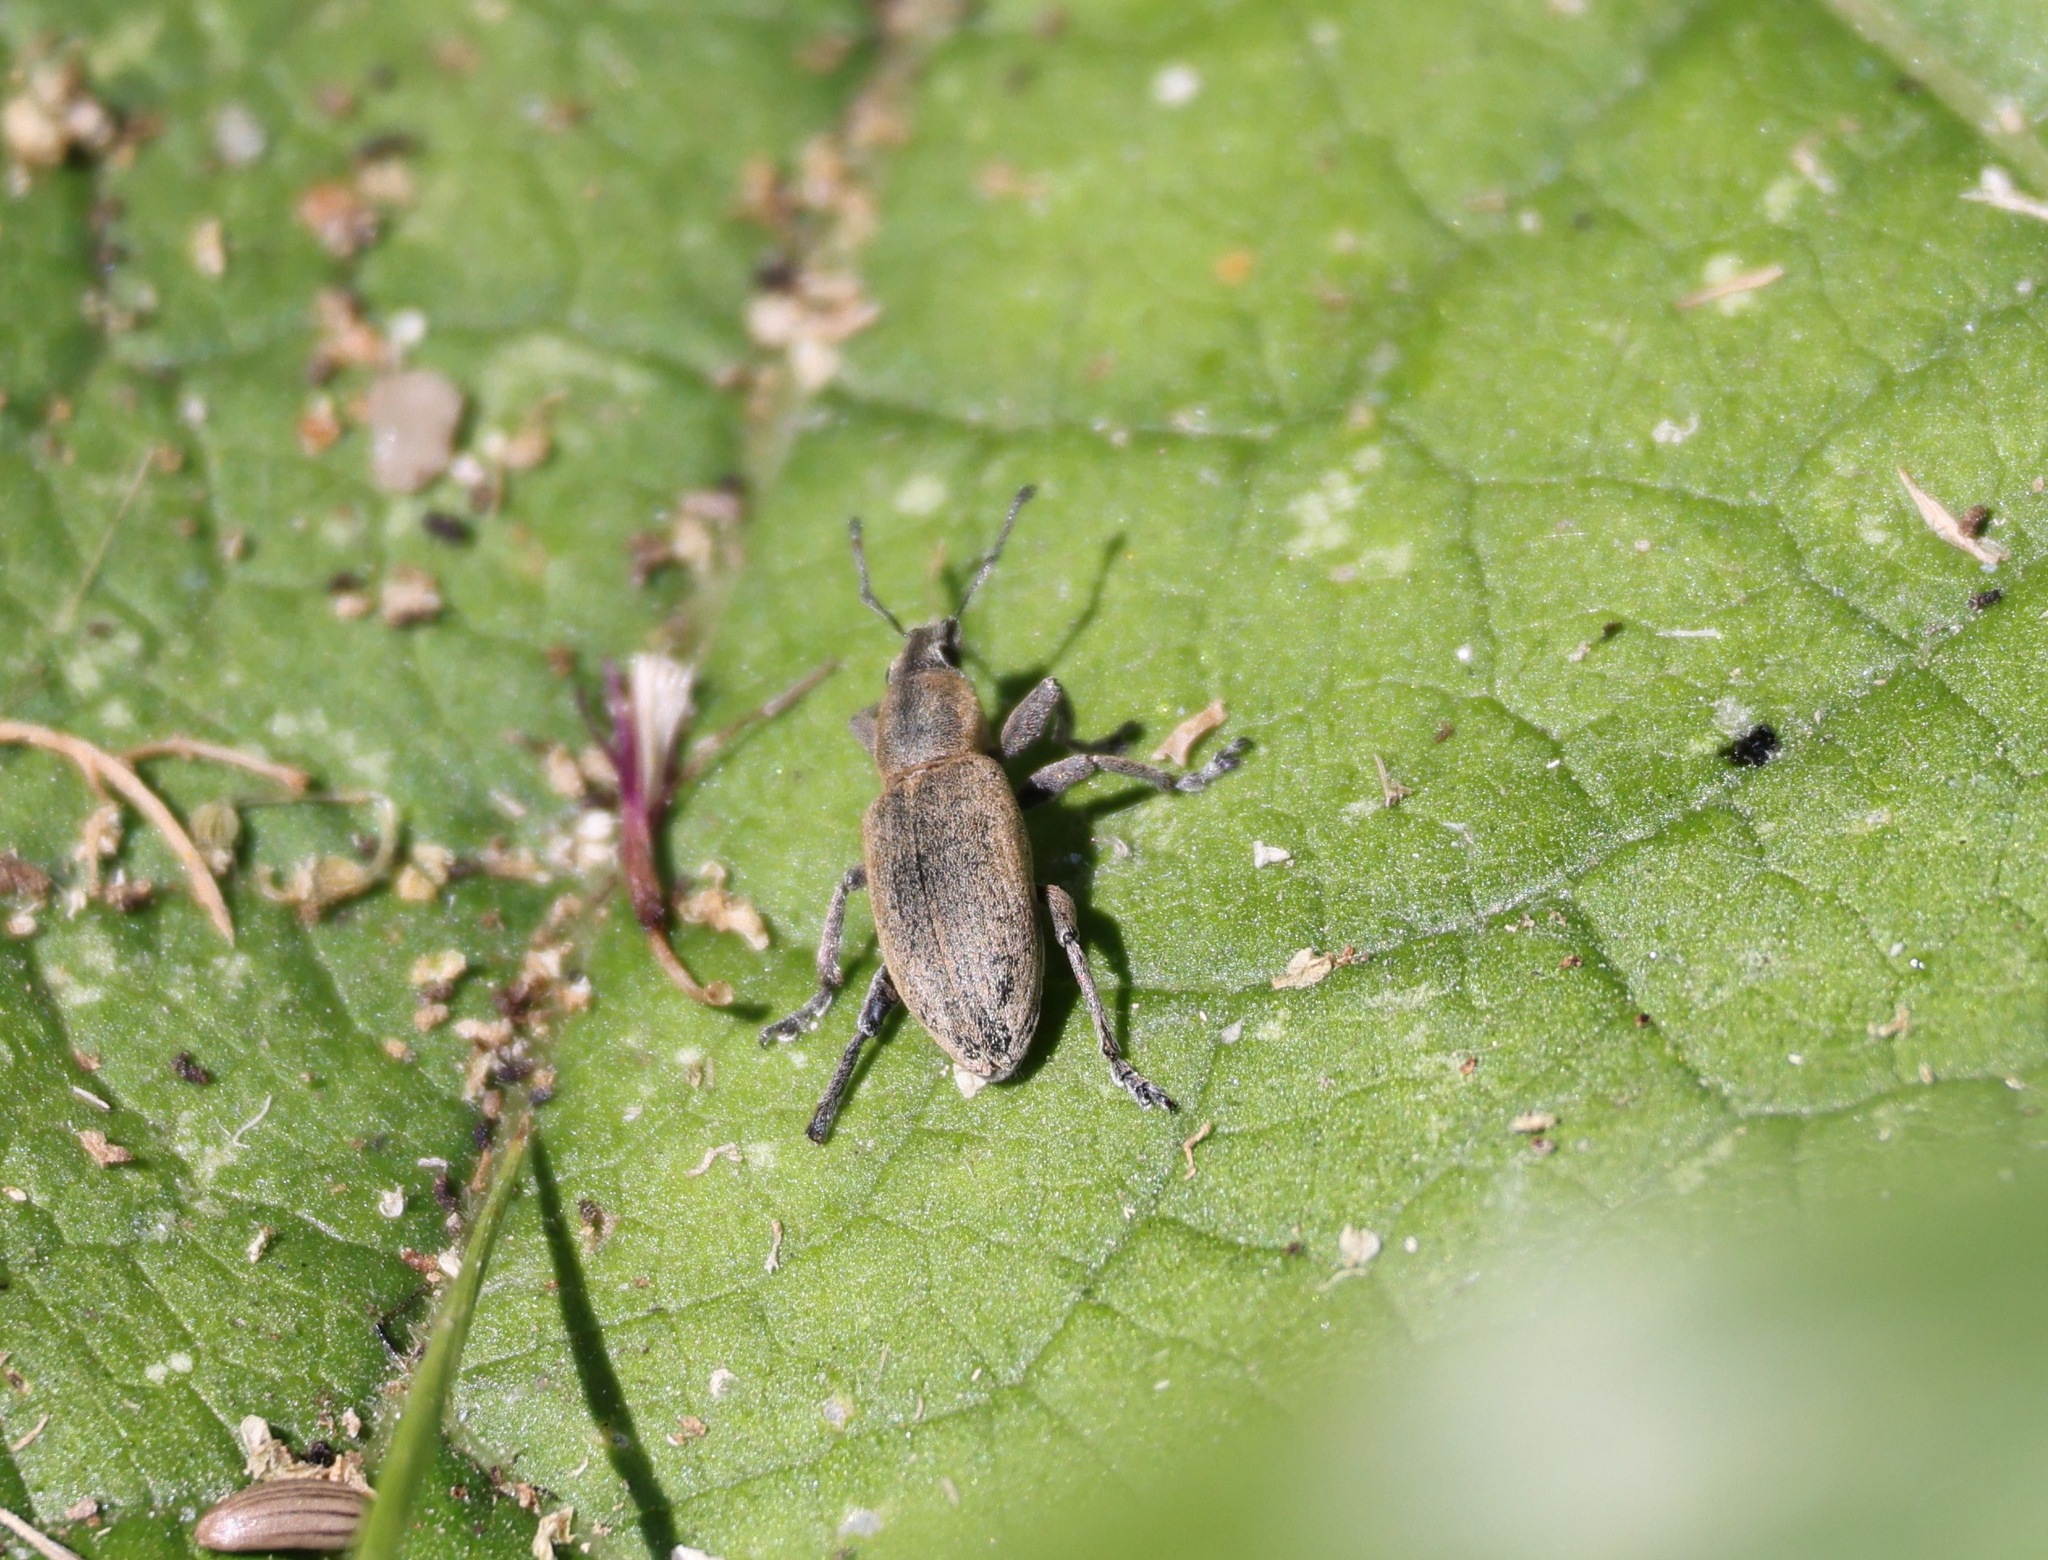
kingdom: Animalia
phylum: Arthropoda
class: Insecta
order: Coleoptera
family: Curculionidae
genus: Tanymecus
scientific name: Tanymecus palliatus
